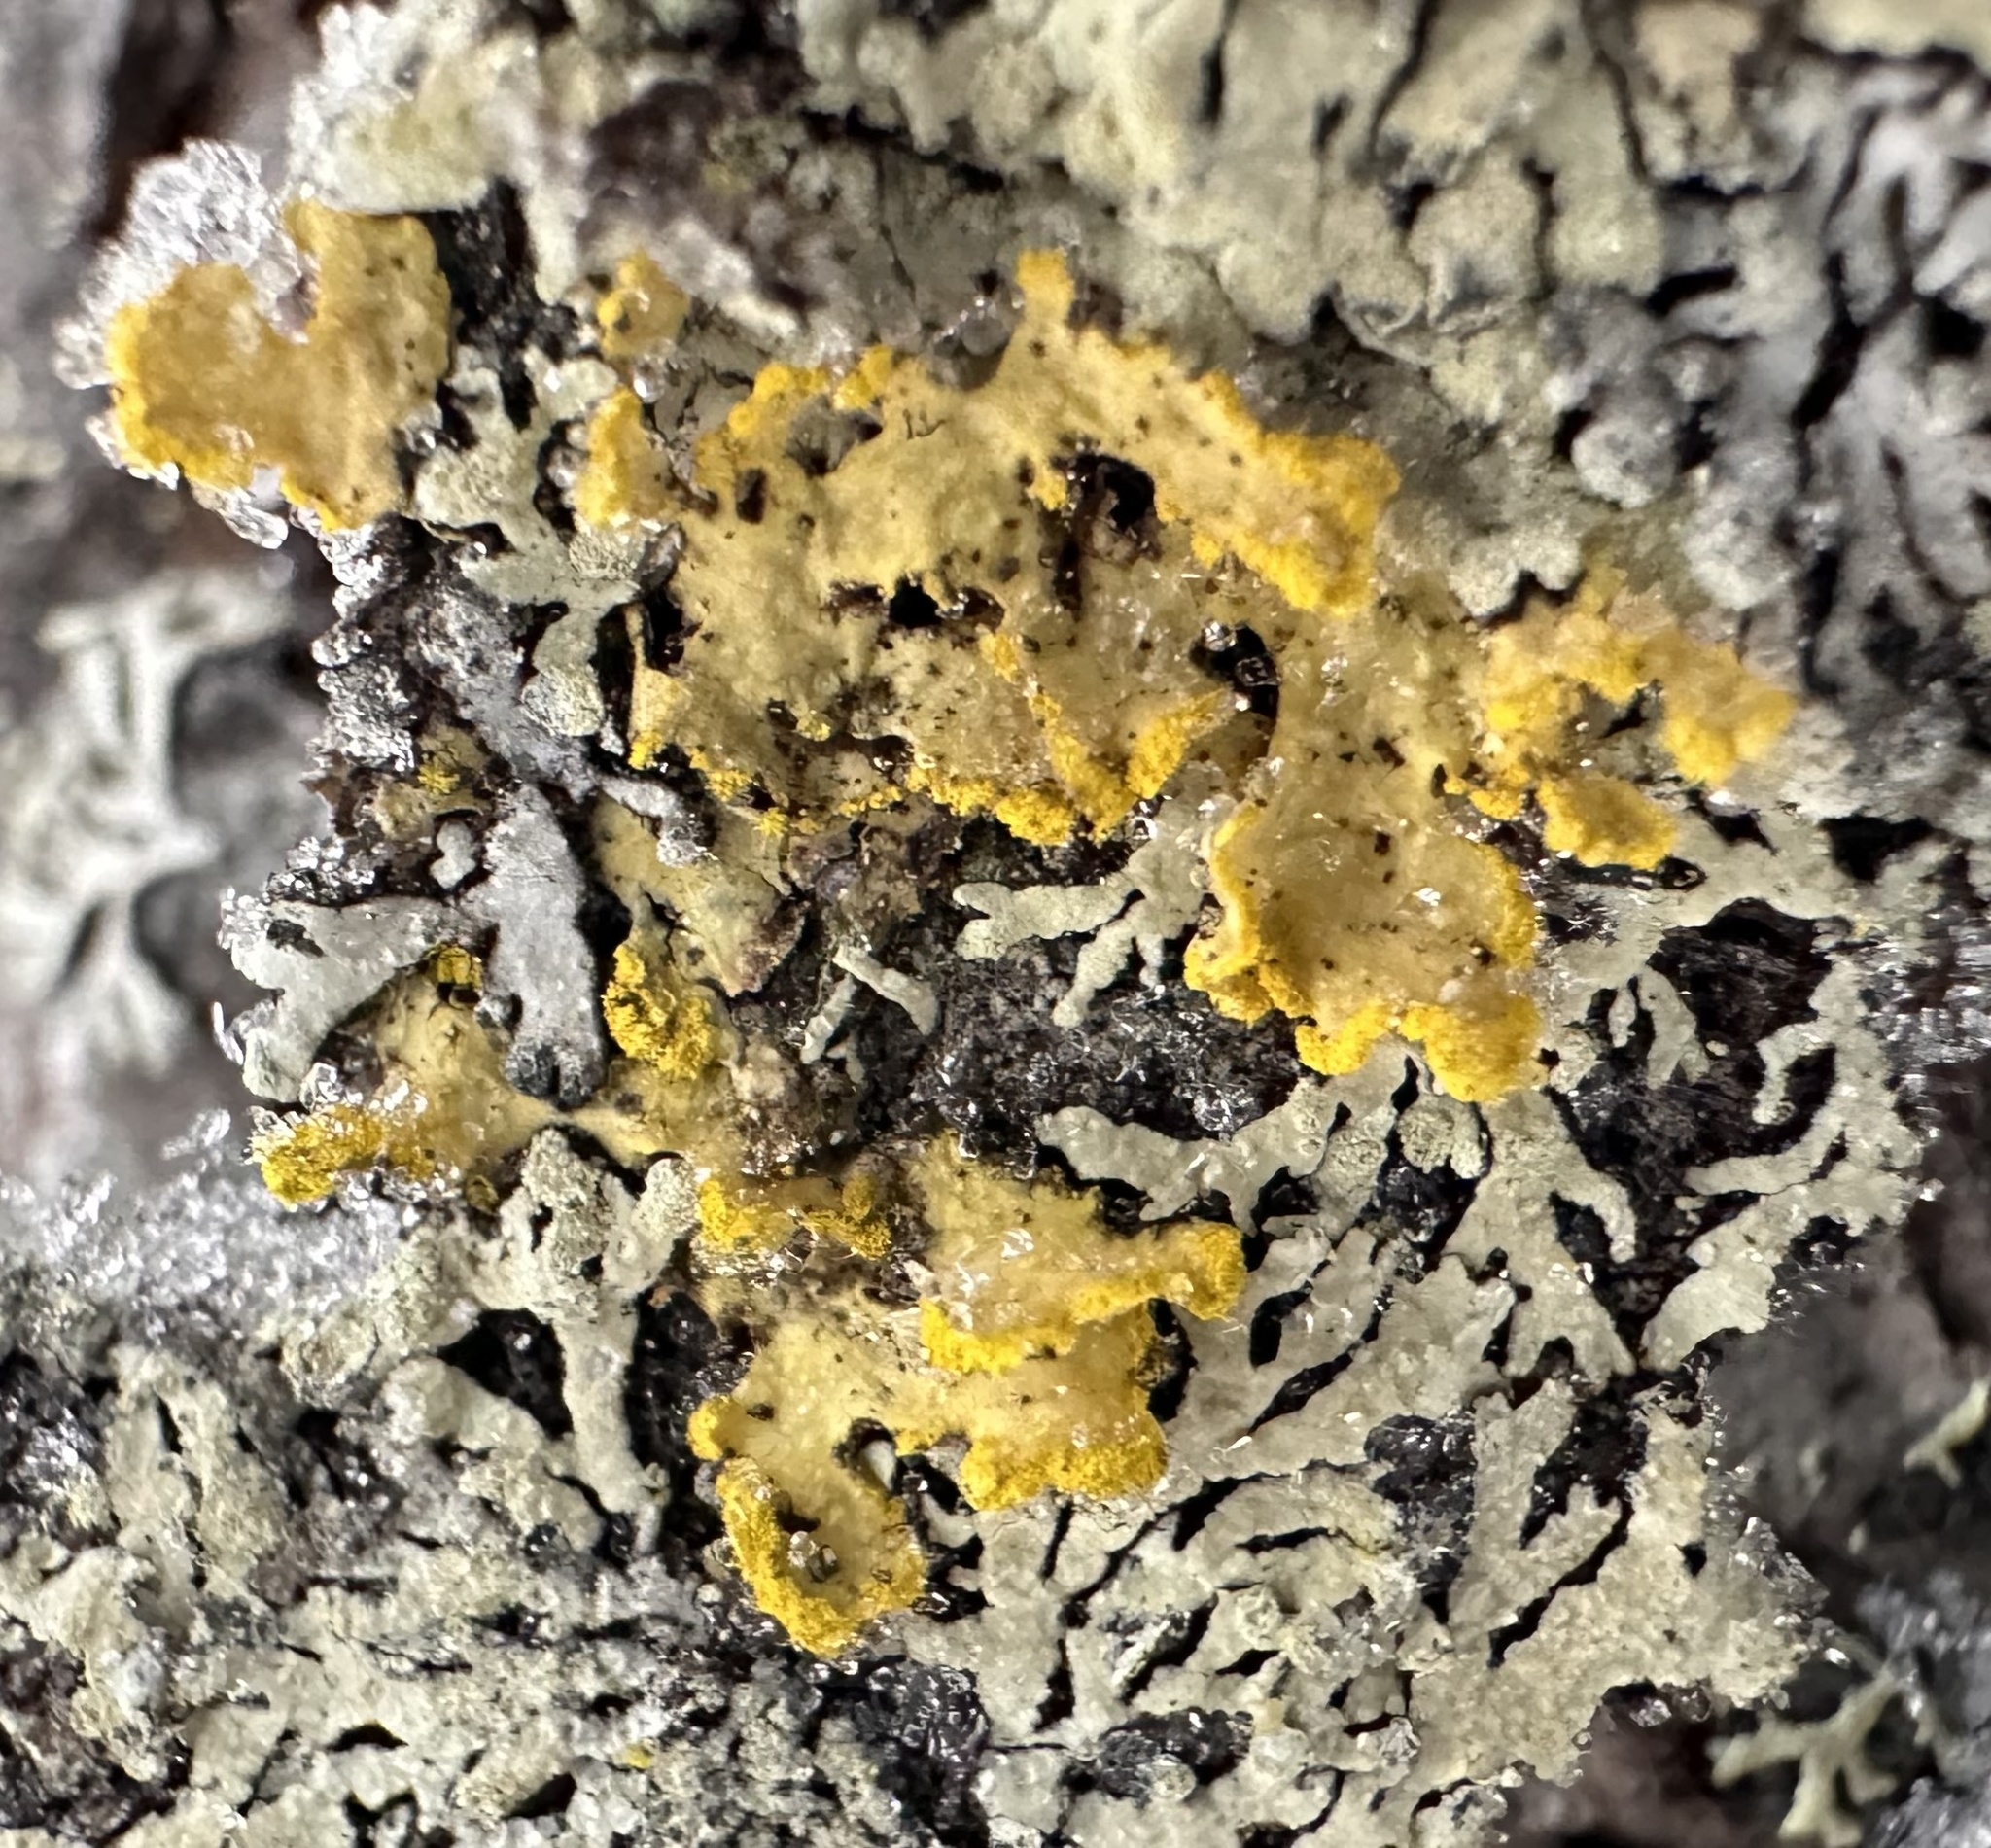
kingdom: Fungi
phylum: Ascomycota
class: Lecanoromycetes
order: Lecanorales
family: Parmeliaceae
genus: Vulpicida
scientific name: Vulpicida pinastri
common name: Powdered sunshine lichen
